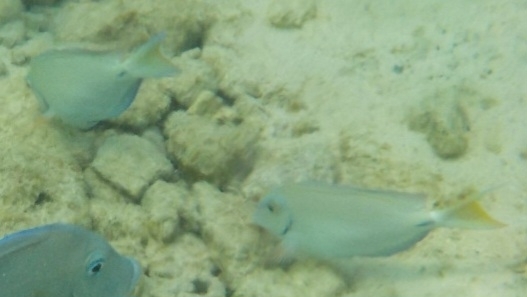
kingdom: Animalia
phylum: Chordata
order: Perciformes
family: Acanthuridae
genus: Acanthurus
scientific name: Acanthurus bahianus
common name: Ocean surgeon
